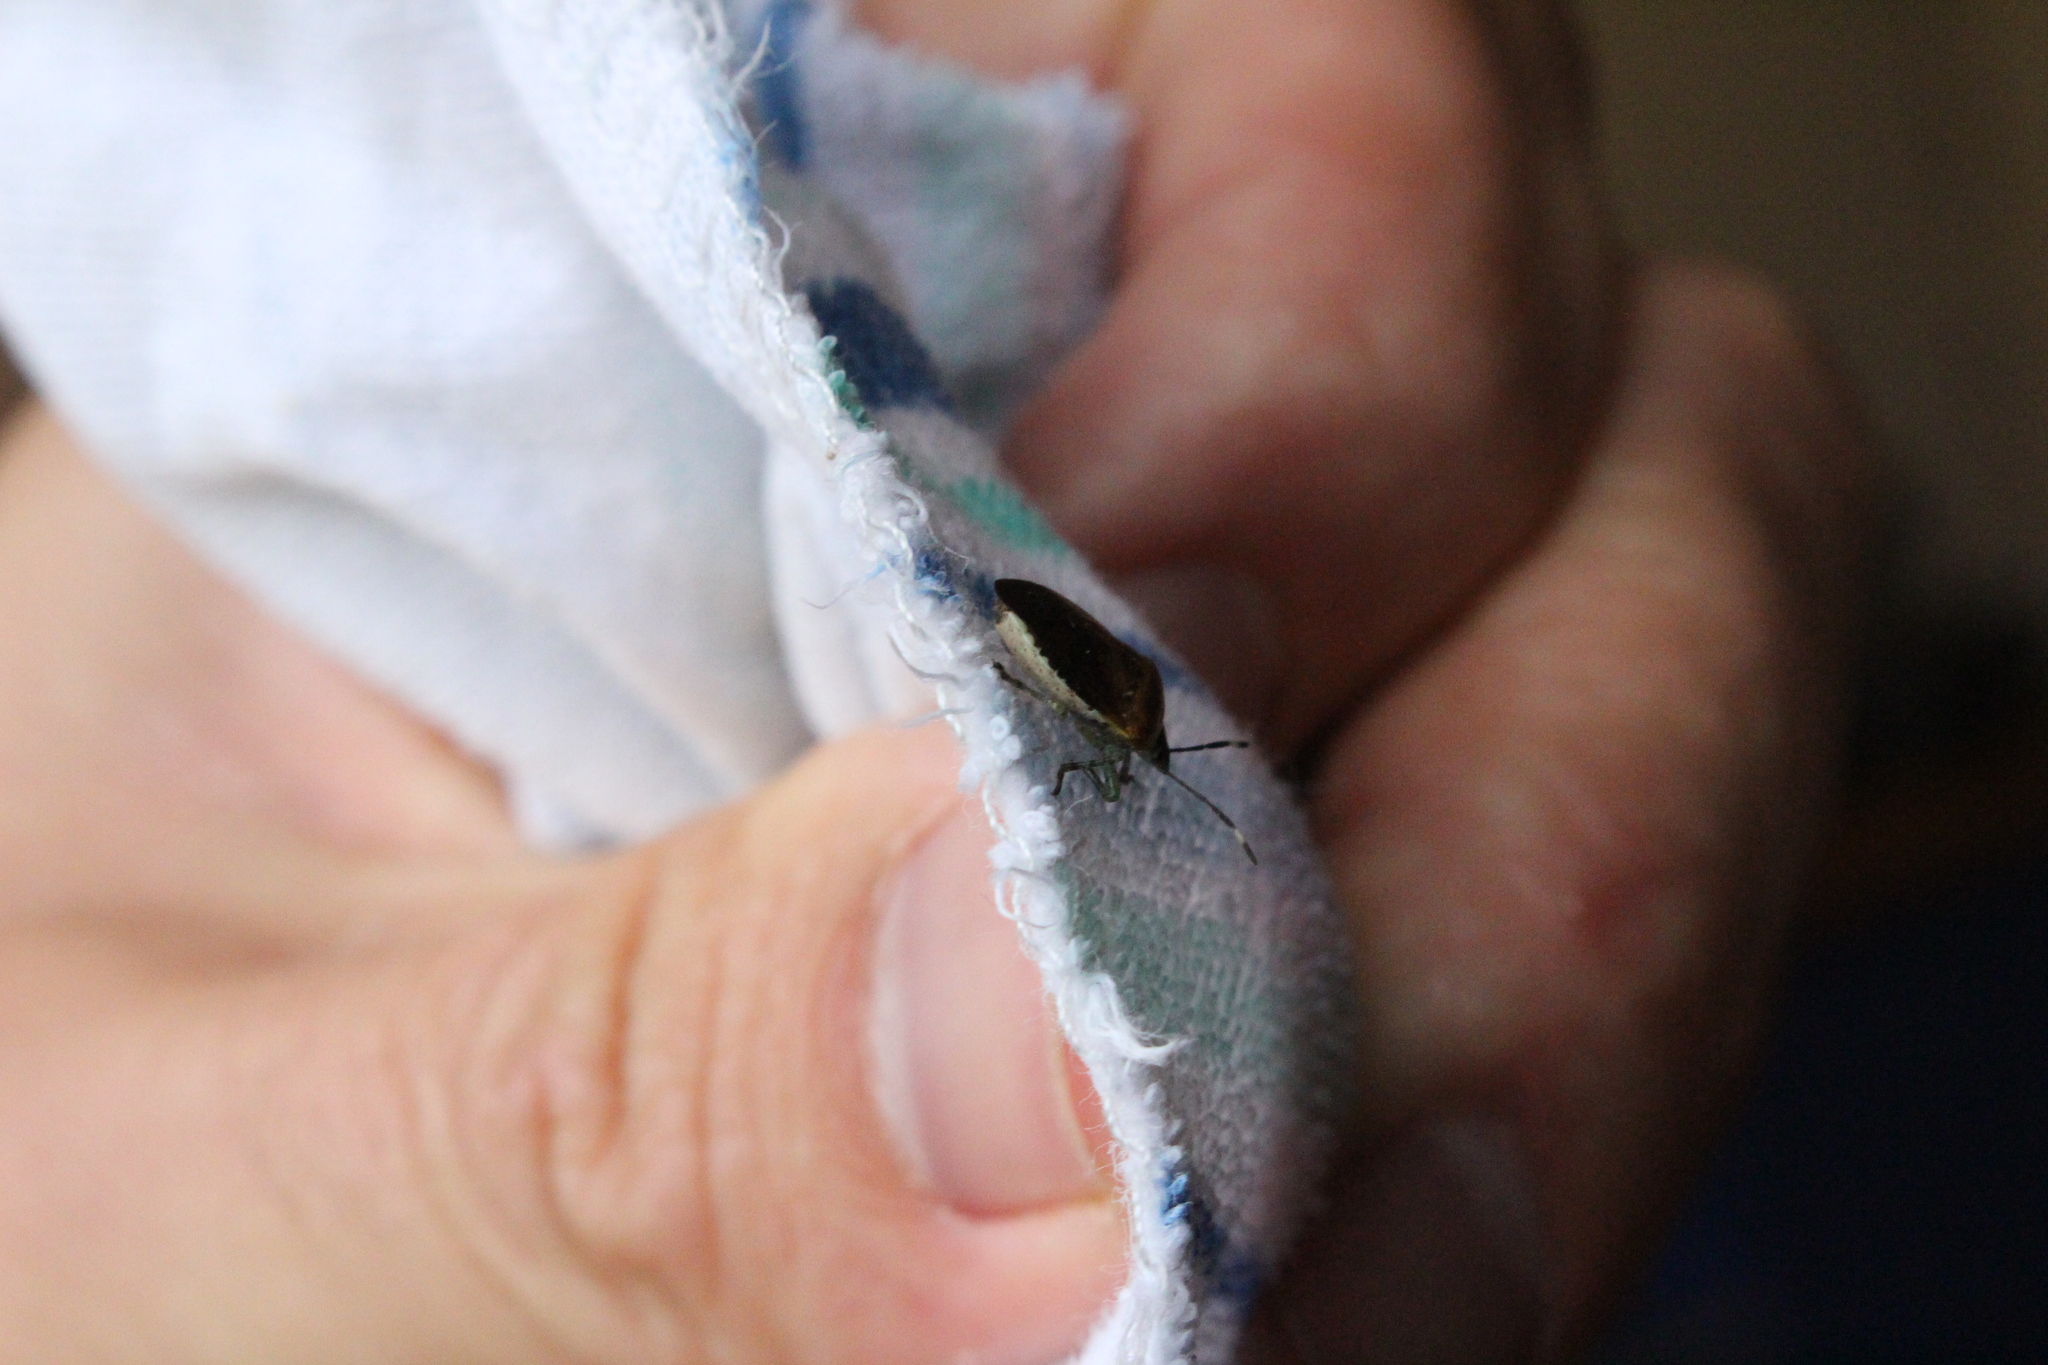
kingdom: Animalia
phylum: Arthropoda
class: Insecta
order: Hemiptera
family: Pentatomidae
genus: Monteithiella
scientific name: Monteithiella
